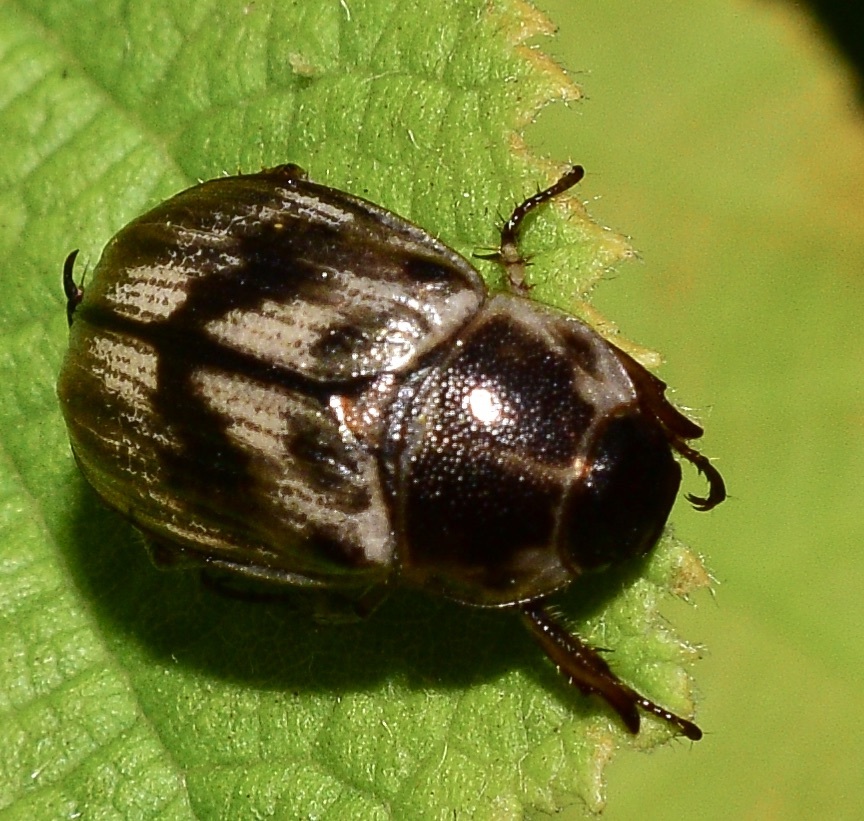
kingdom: Animalia
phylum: Arthropoda
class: Insecta
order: Coleoptera
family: Scarabaeidae
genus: Exomala
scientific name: Exomala orientalis
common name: Oriental beetle
